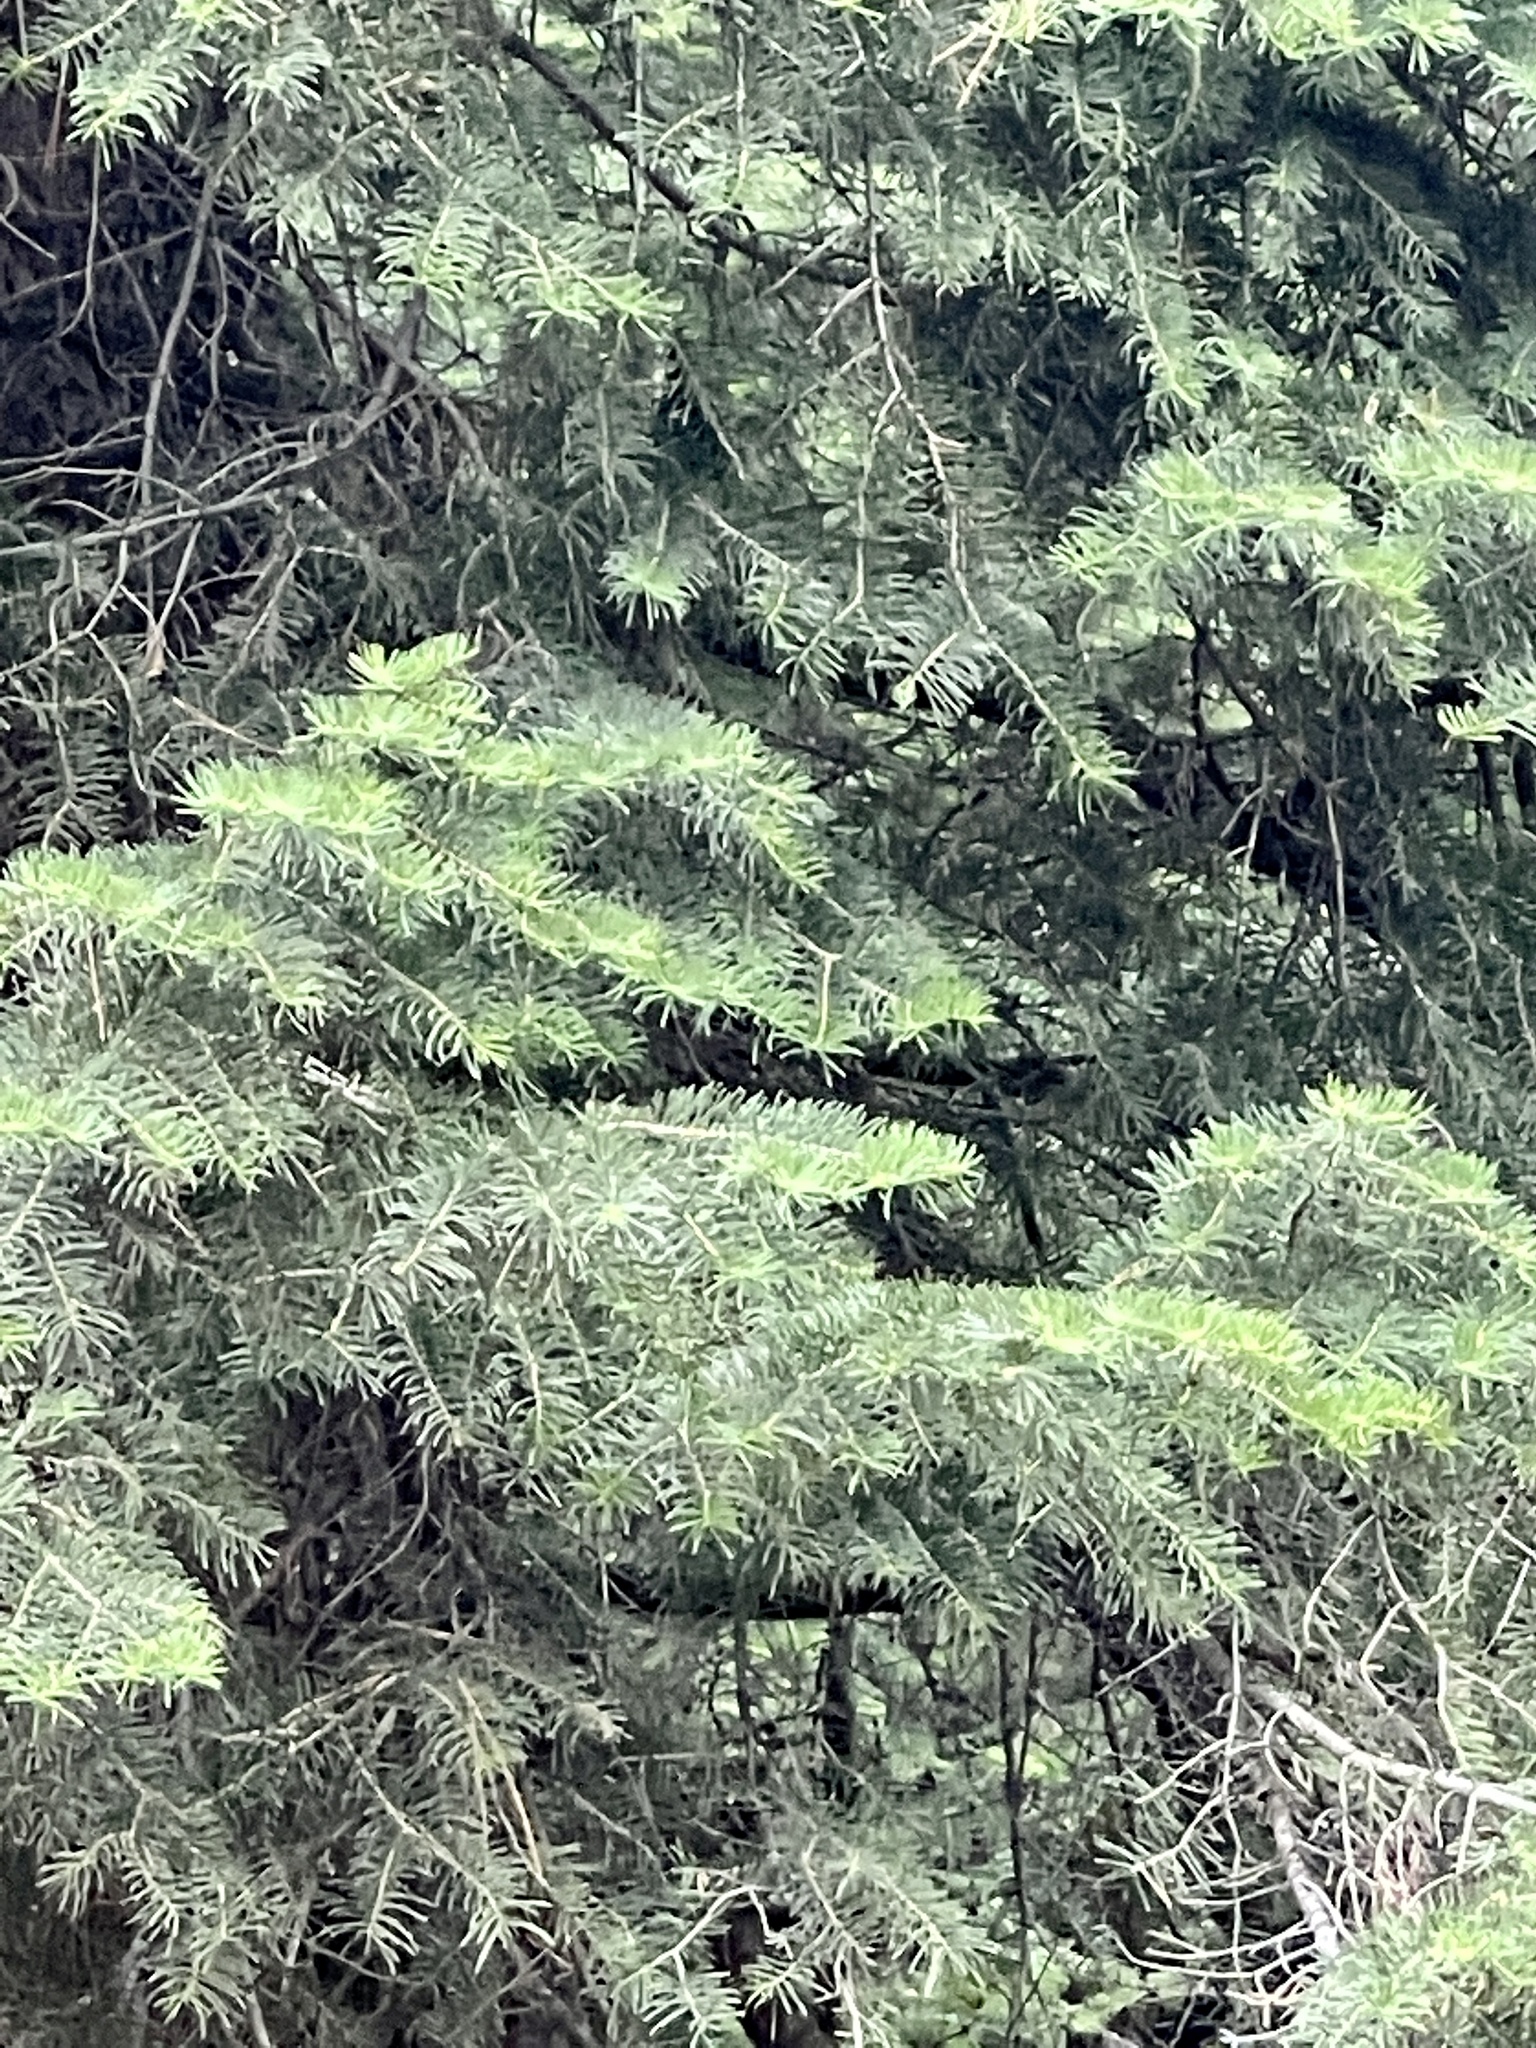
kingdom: Plantae
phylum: Tracheophyta
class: Pinopsida
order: Pinales
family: Pinaceae
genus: Abies
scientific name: Abies concolor
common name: Colorado fir
